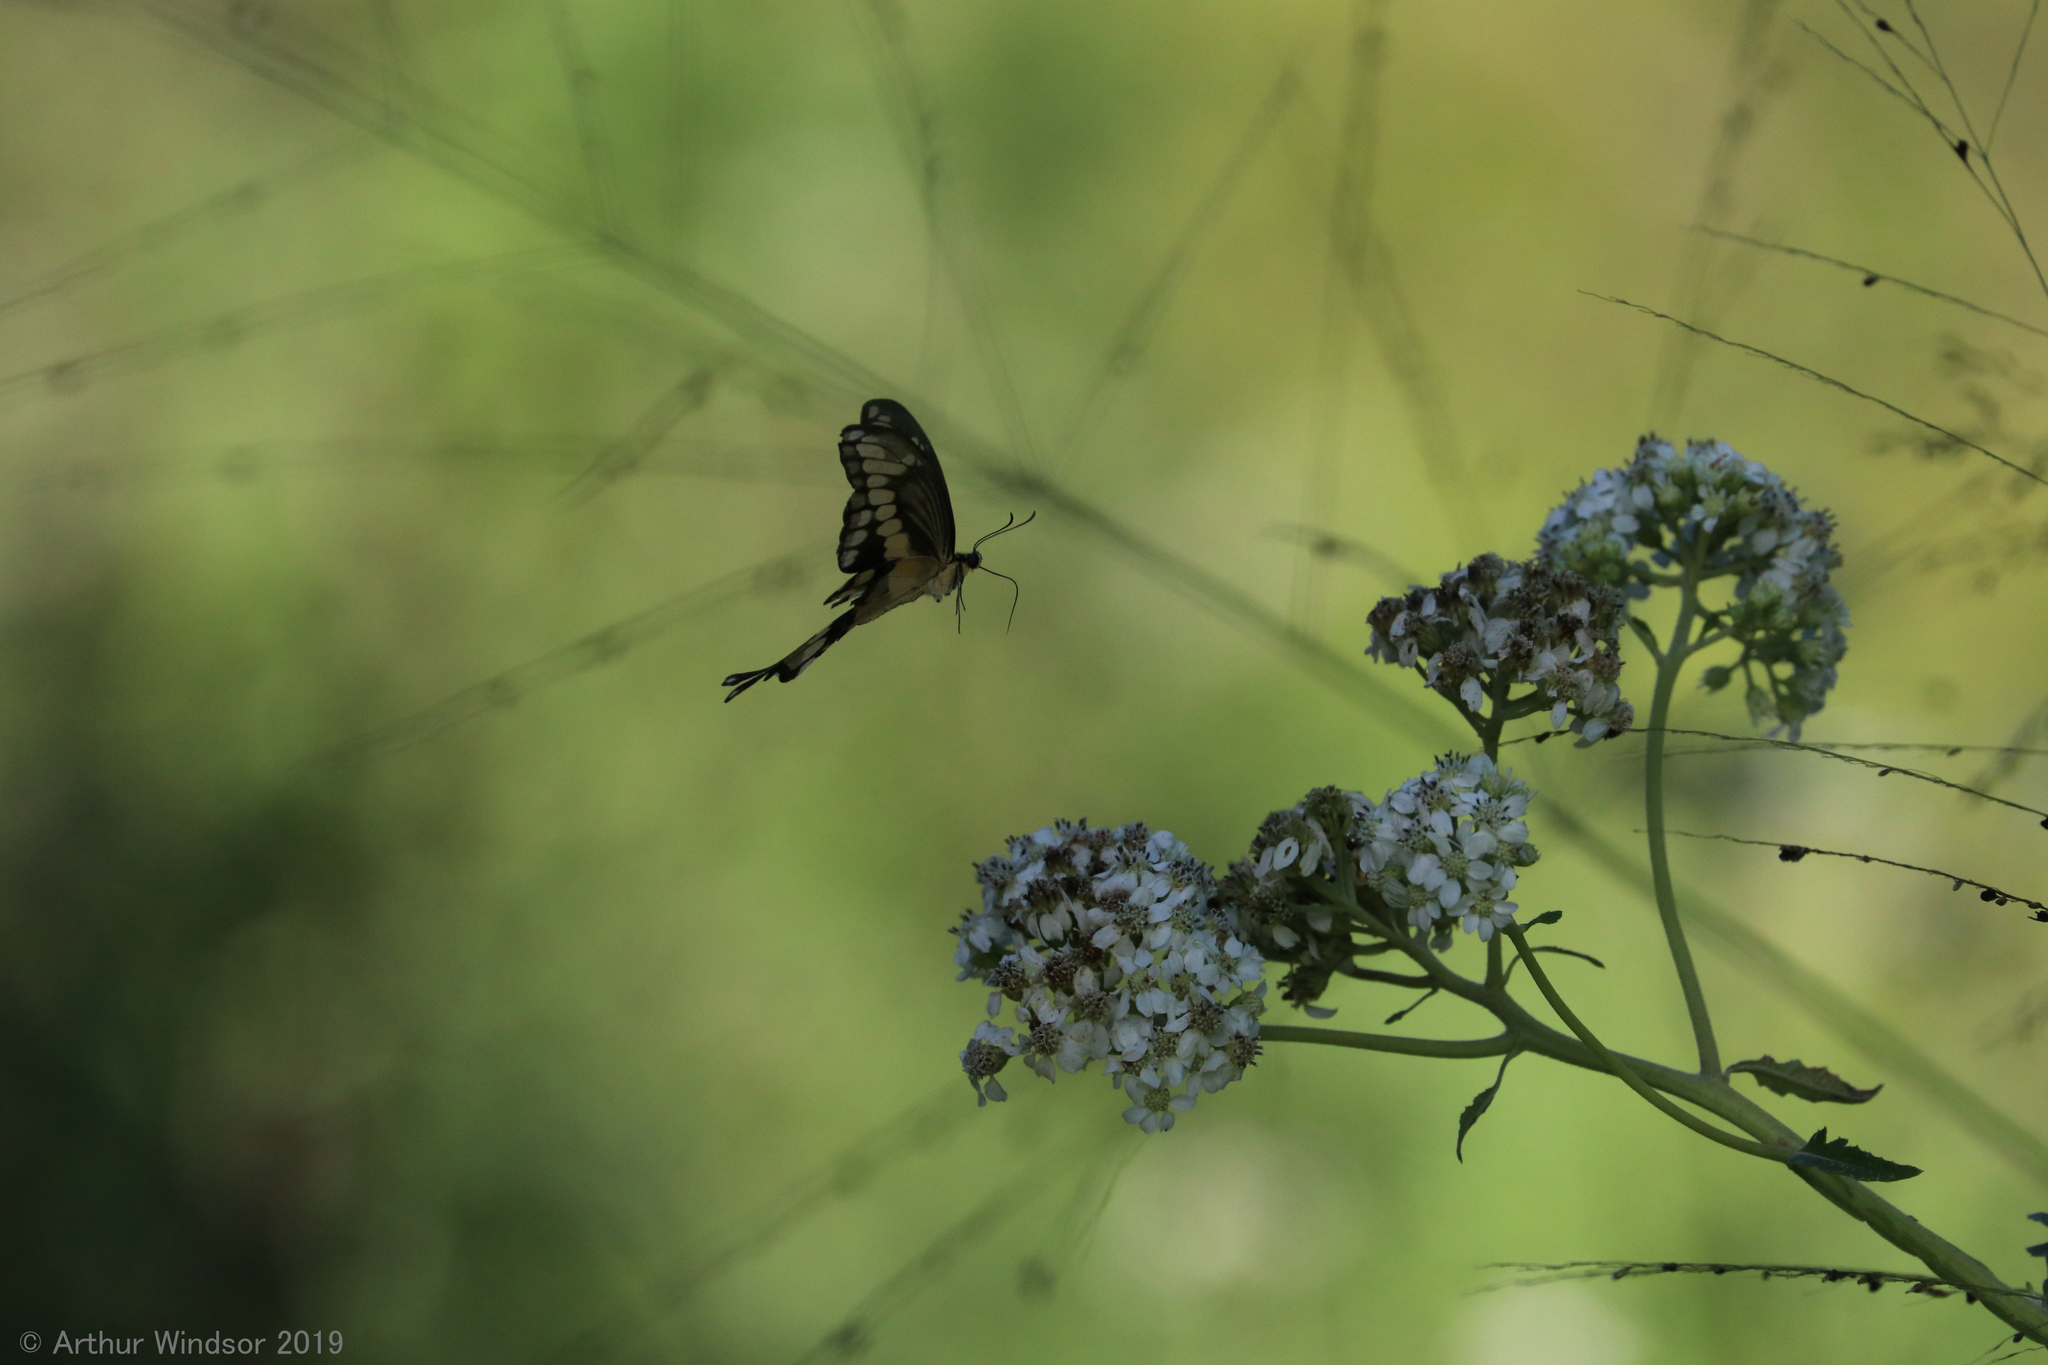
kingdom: Animalia
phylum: Arthropoda
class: Insecta
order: Lepidoptera
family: Papilionidae
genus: Papilio
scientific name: Papilio cresphontes
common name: Giant swallowtail
